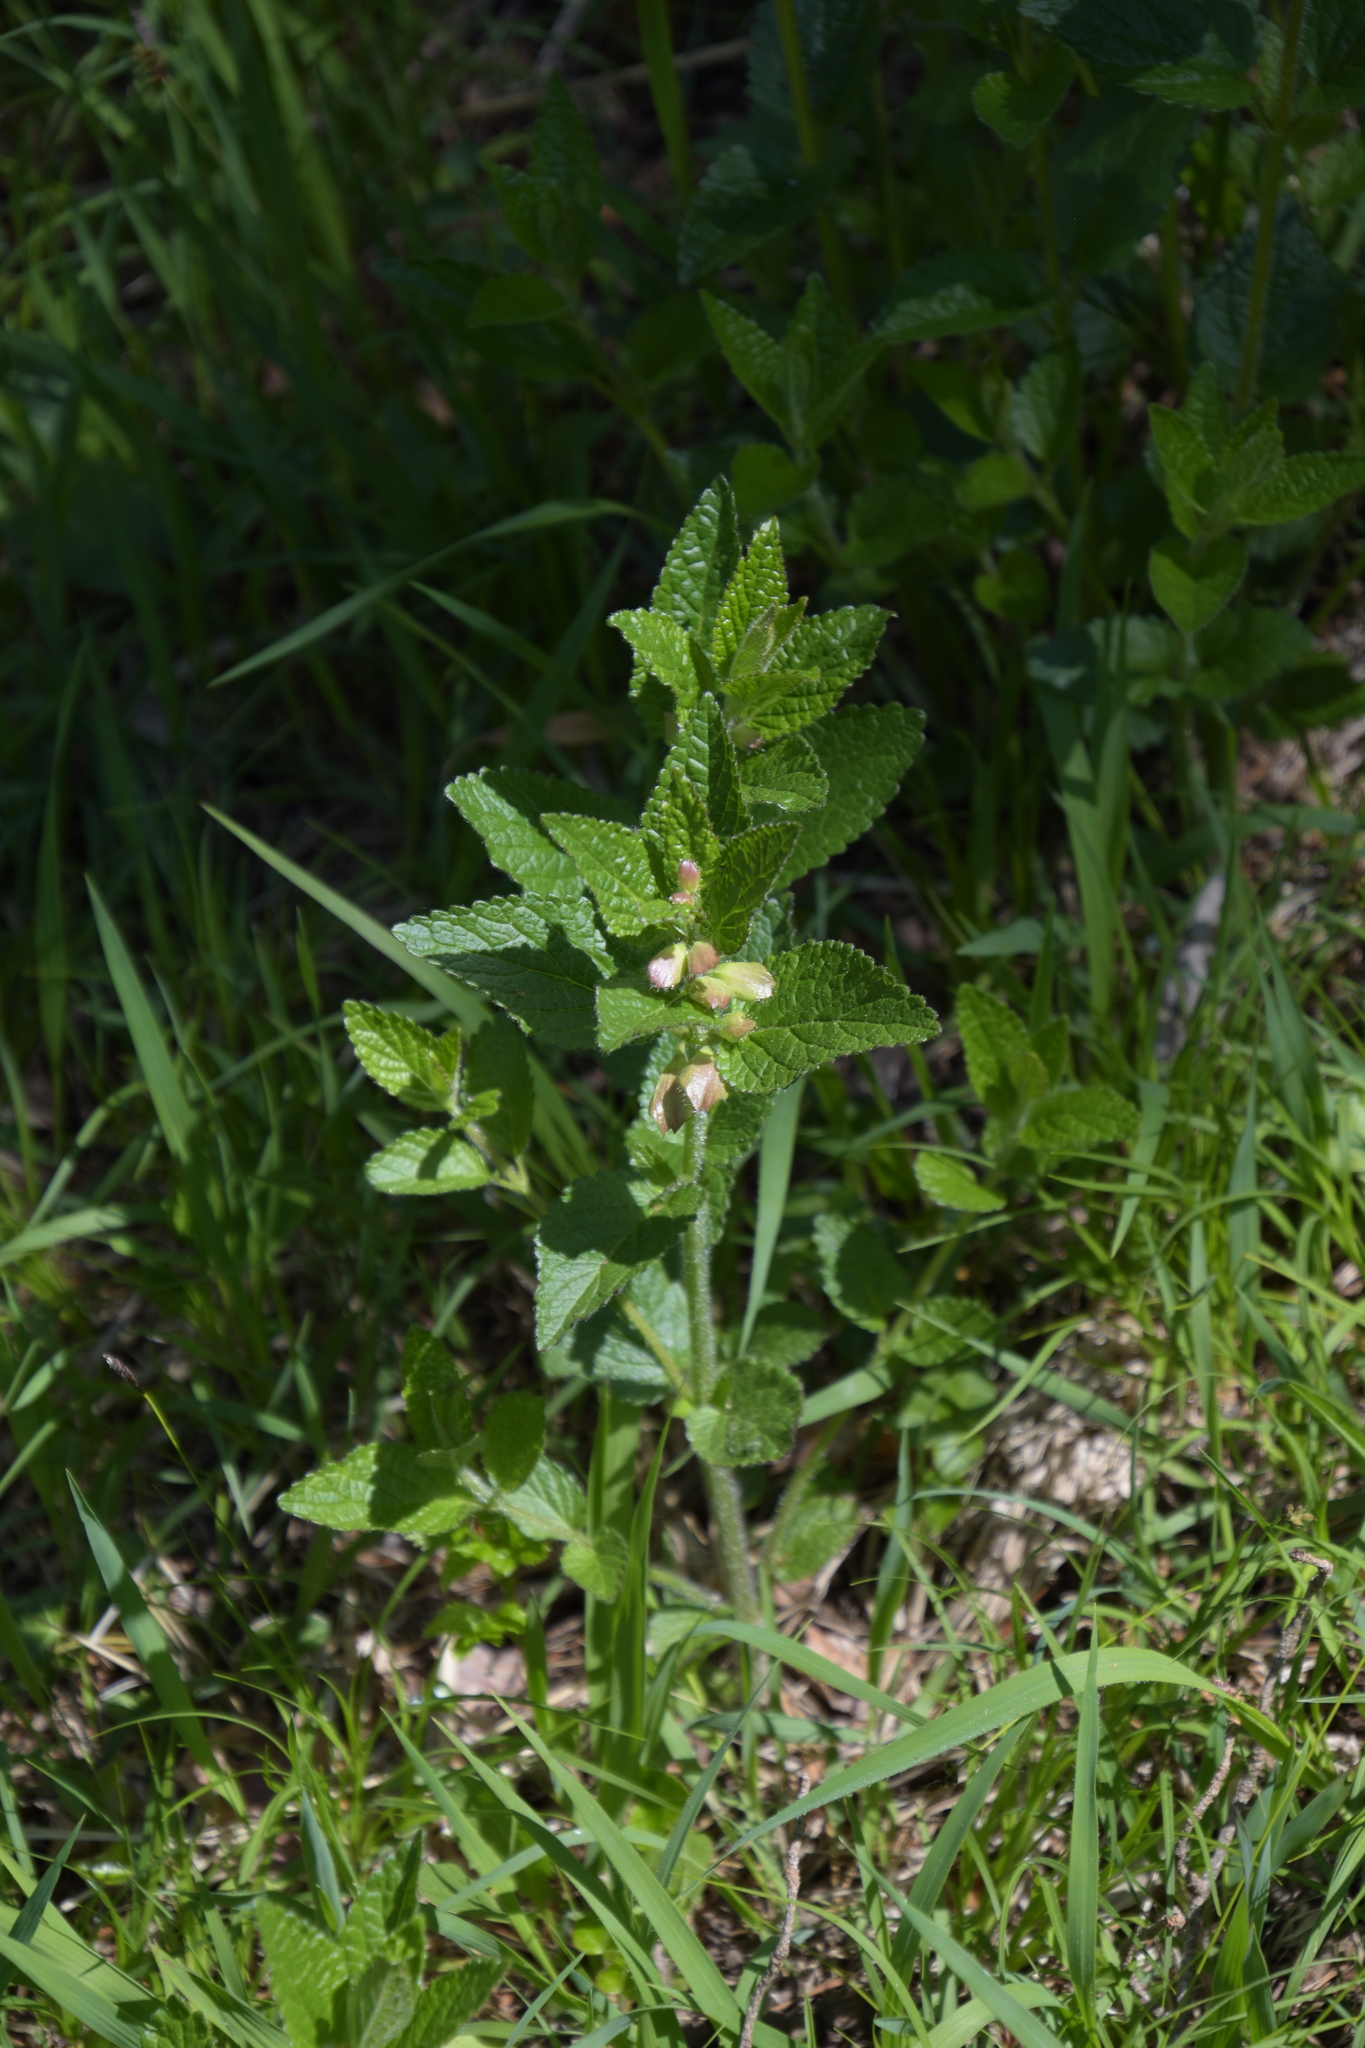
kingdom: Plantae
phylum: Tracheophyta
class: Magnoliopsida
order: Lamiales
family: Lamiaceae
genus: Melittis
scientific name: Melittis melissophyllum
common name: Bastard balm
